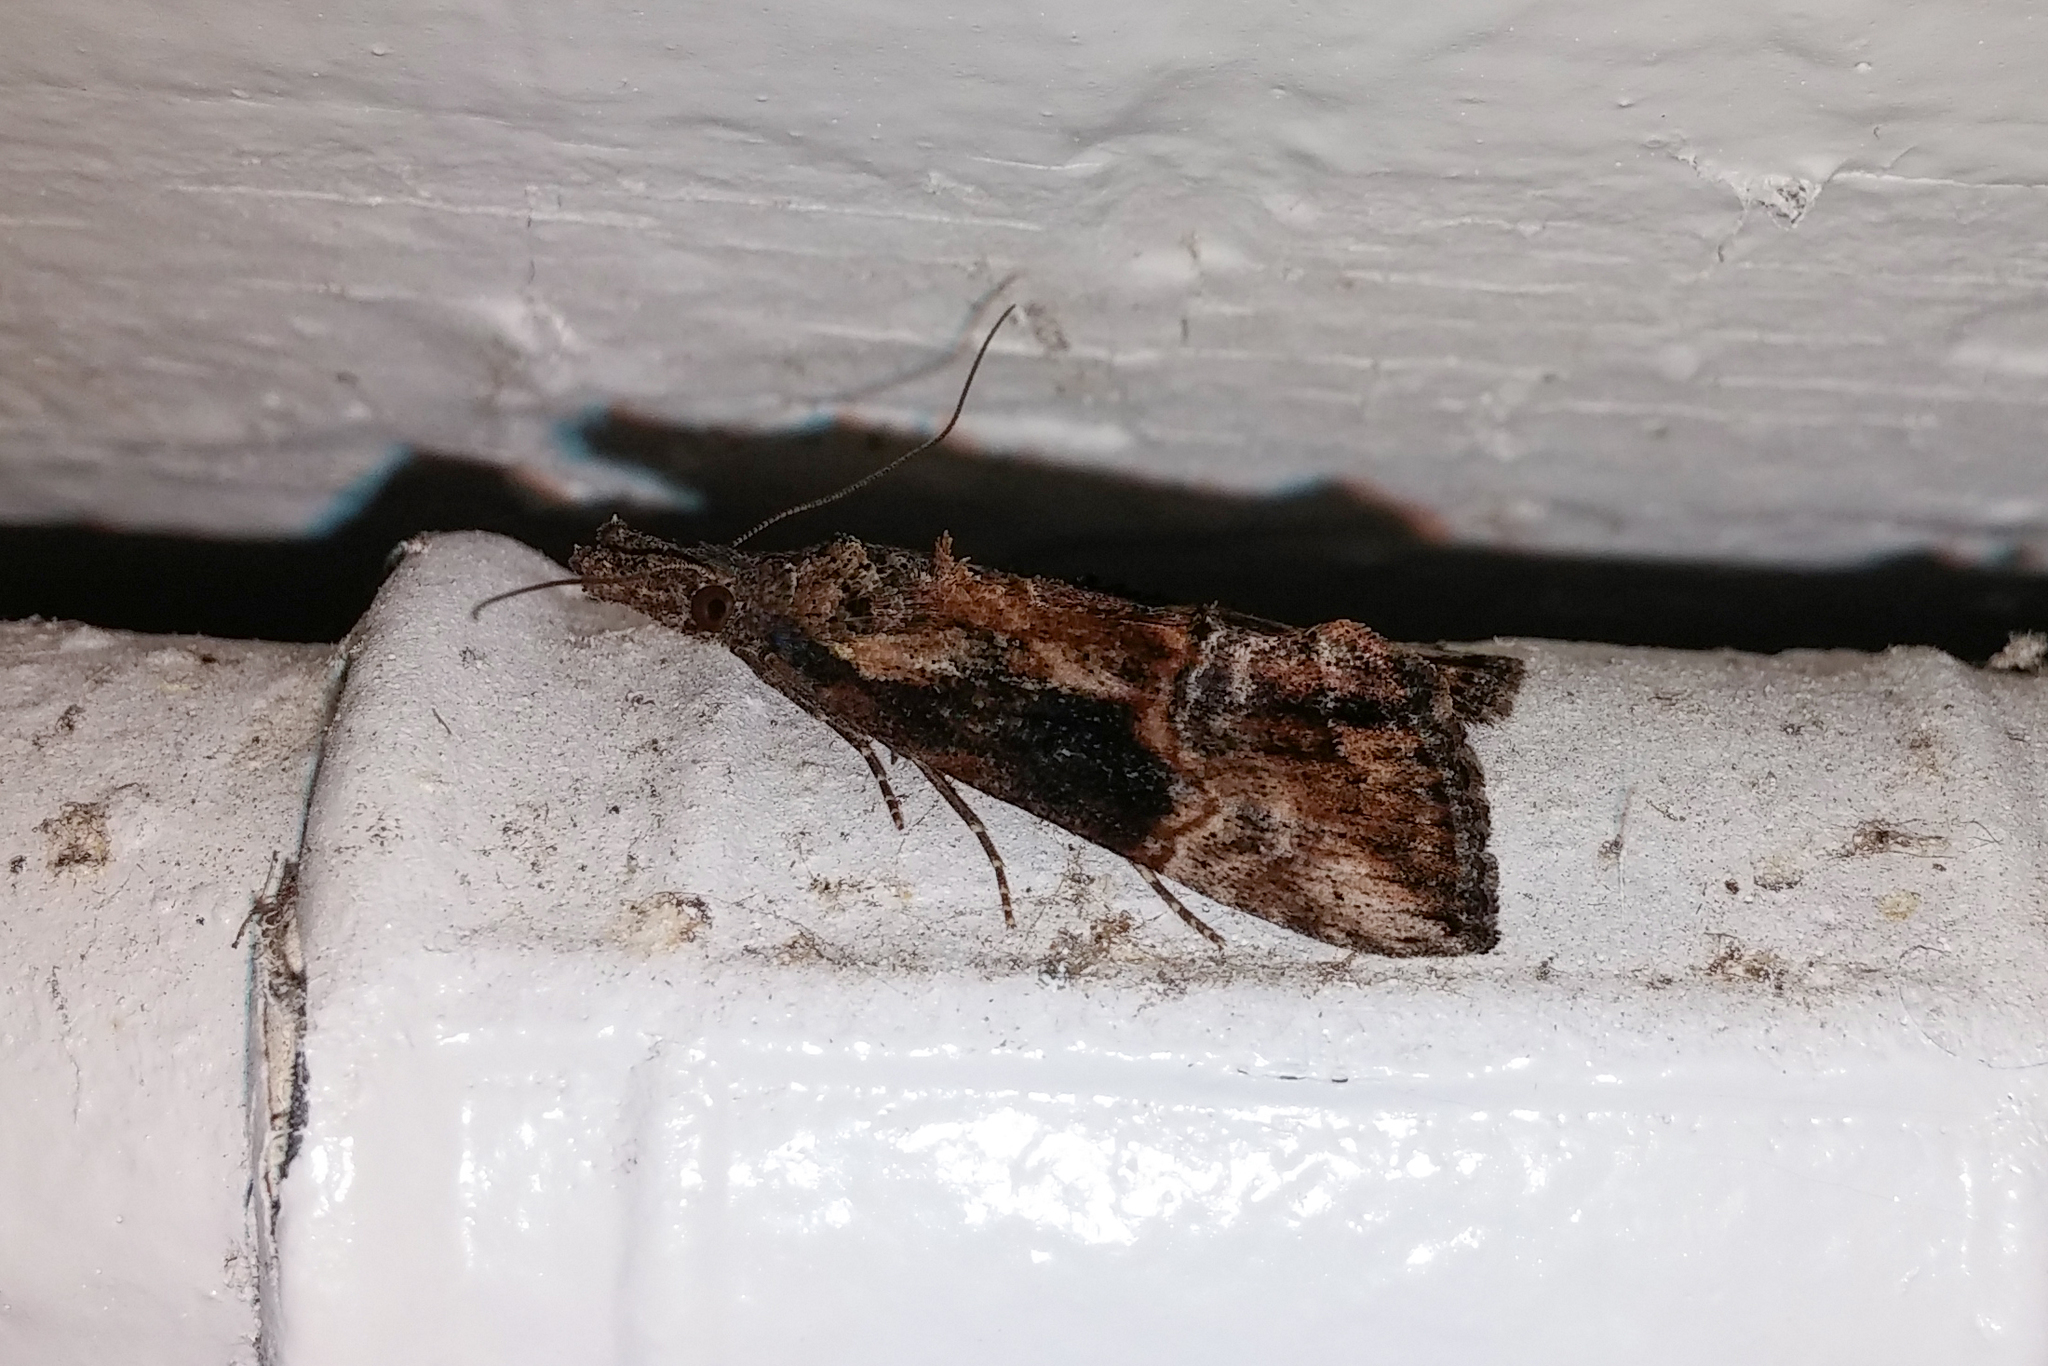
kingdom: Animalia
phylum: Arthropoda
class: Insecta
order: Lepidoptera
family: Erebidae
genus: Hypena
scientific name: Hypena scabra
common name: Green cloverworm
